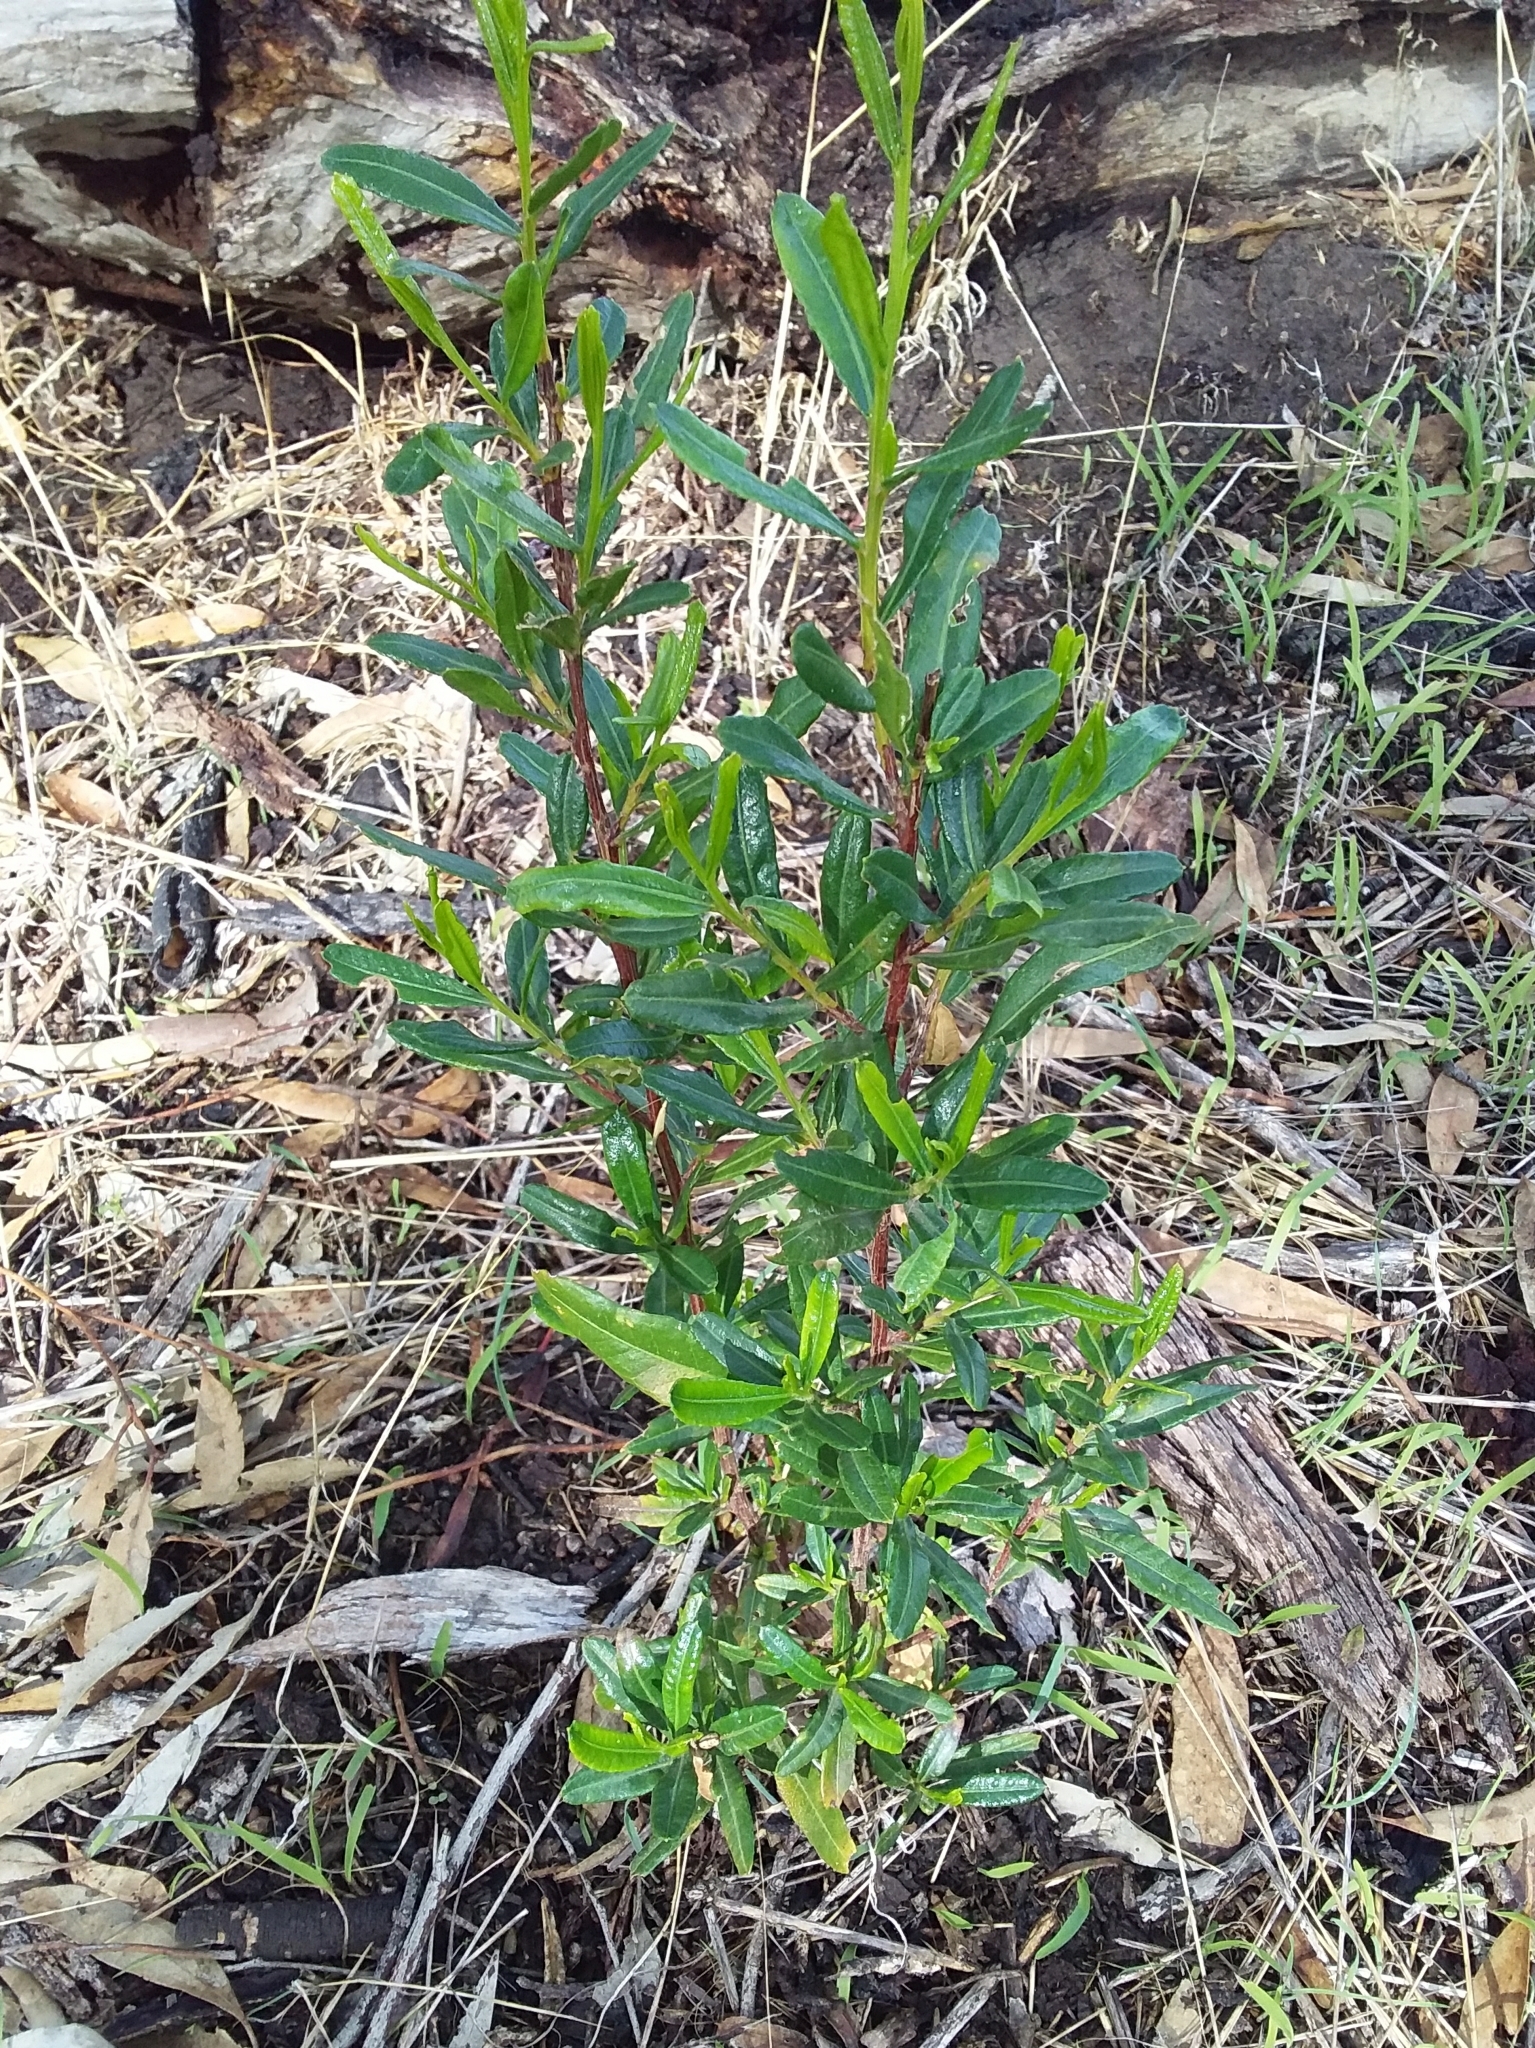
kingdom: Plantae
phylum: Tracheophyta
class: Magnoliopsida
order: Sapindales
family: Sapindaceae
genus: Dodonaea
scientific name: Dodonaea viscosa
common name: Hopbush
